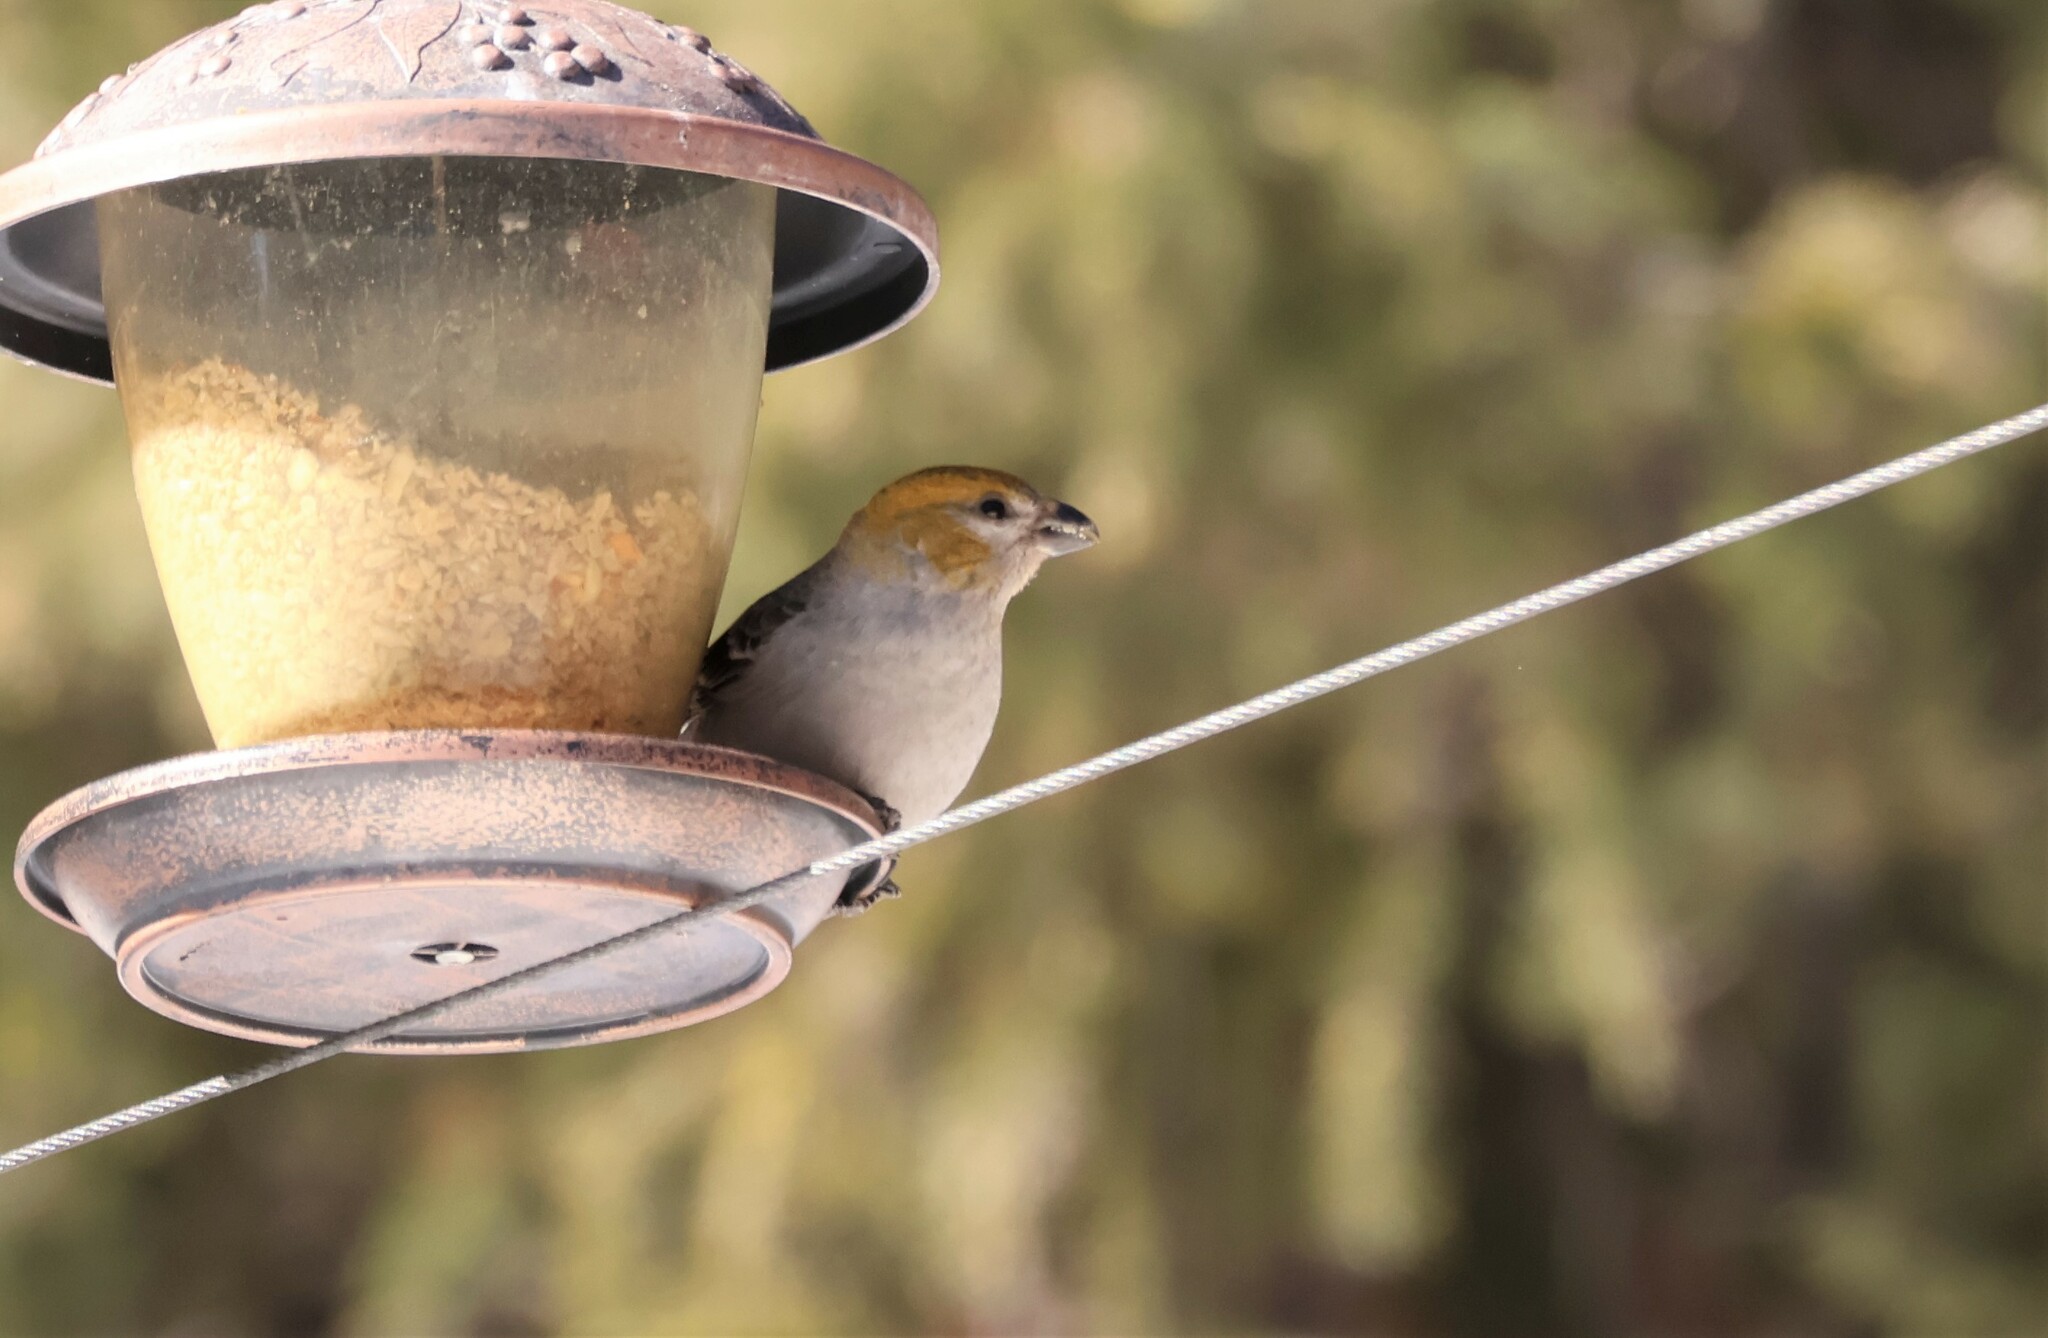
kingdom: Animalia
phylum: Chordata
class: Aves
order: Passeriformes
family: Fringillidae
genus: Pinicola
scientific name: Pinicola enucleator
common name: Pine grosbeak
